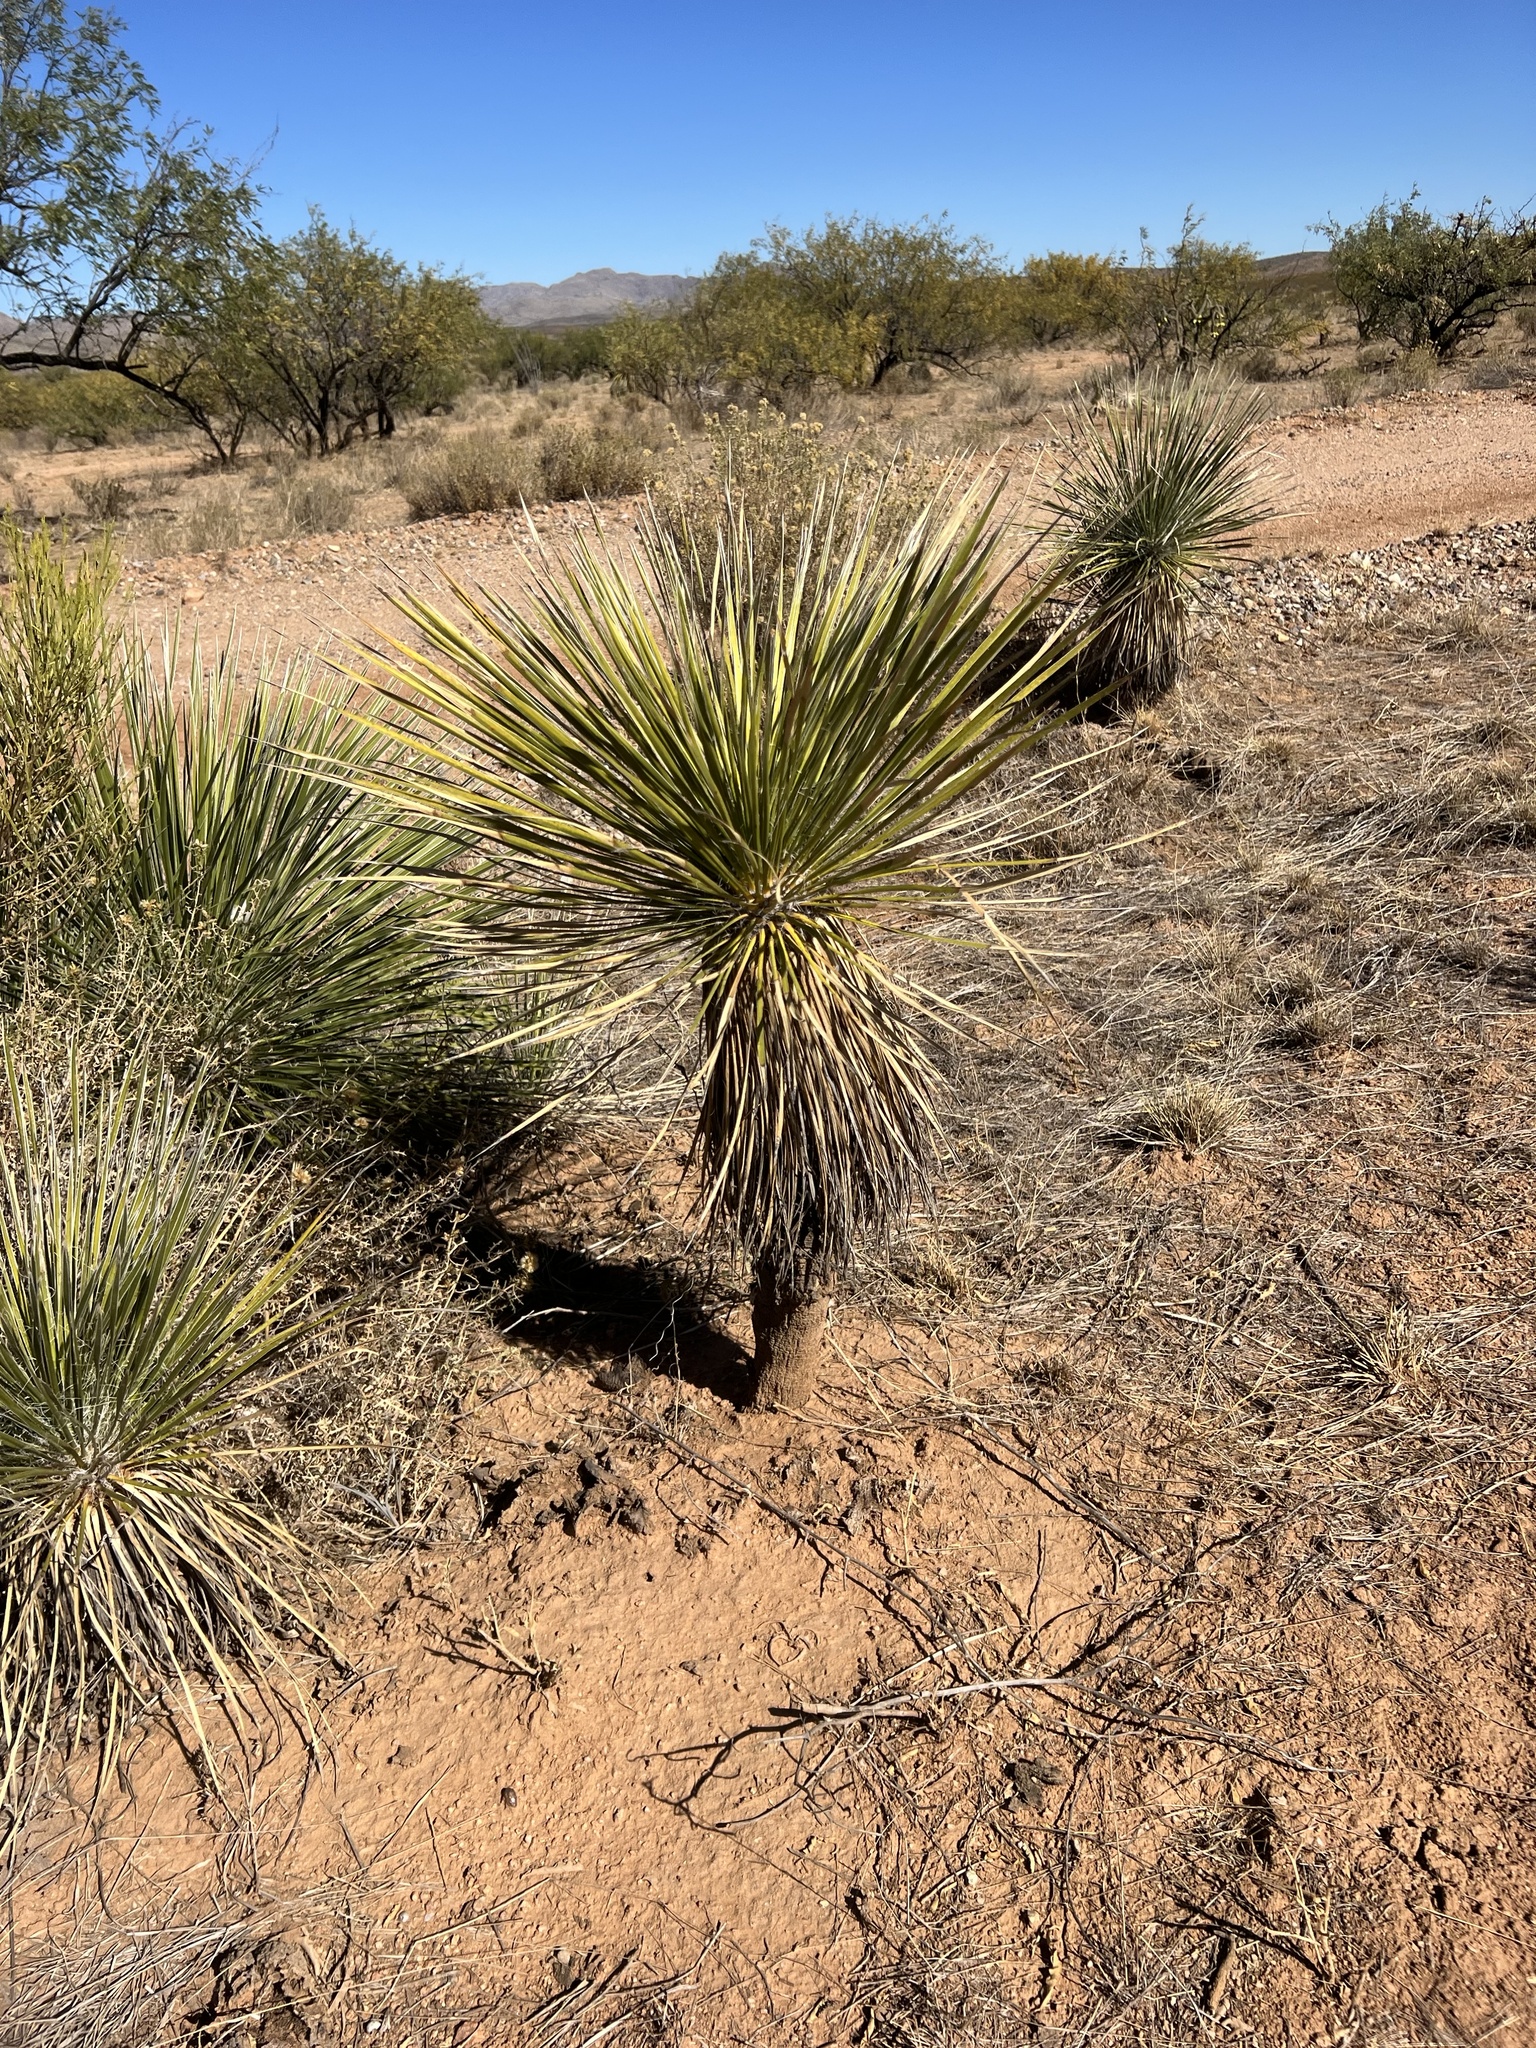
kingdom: Plantae
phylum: Tracheophyta
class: Liliopsida
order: Asparagales
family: Asparagaceae
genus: Yucca
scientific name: Yucca elata
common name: Palmella
